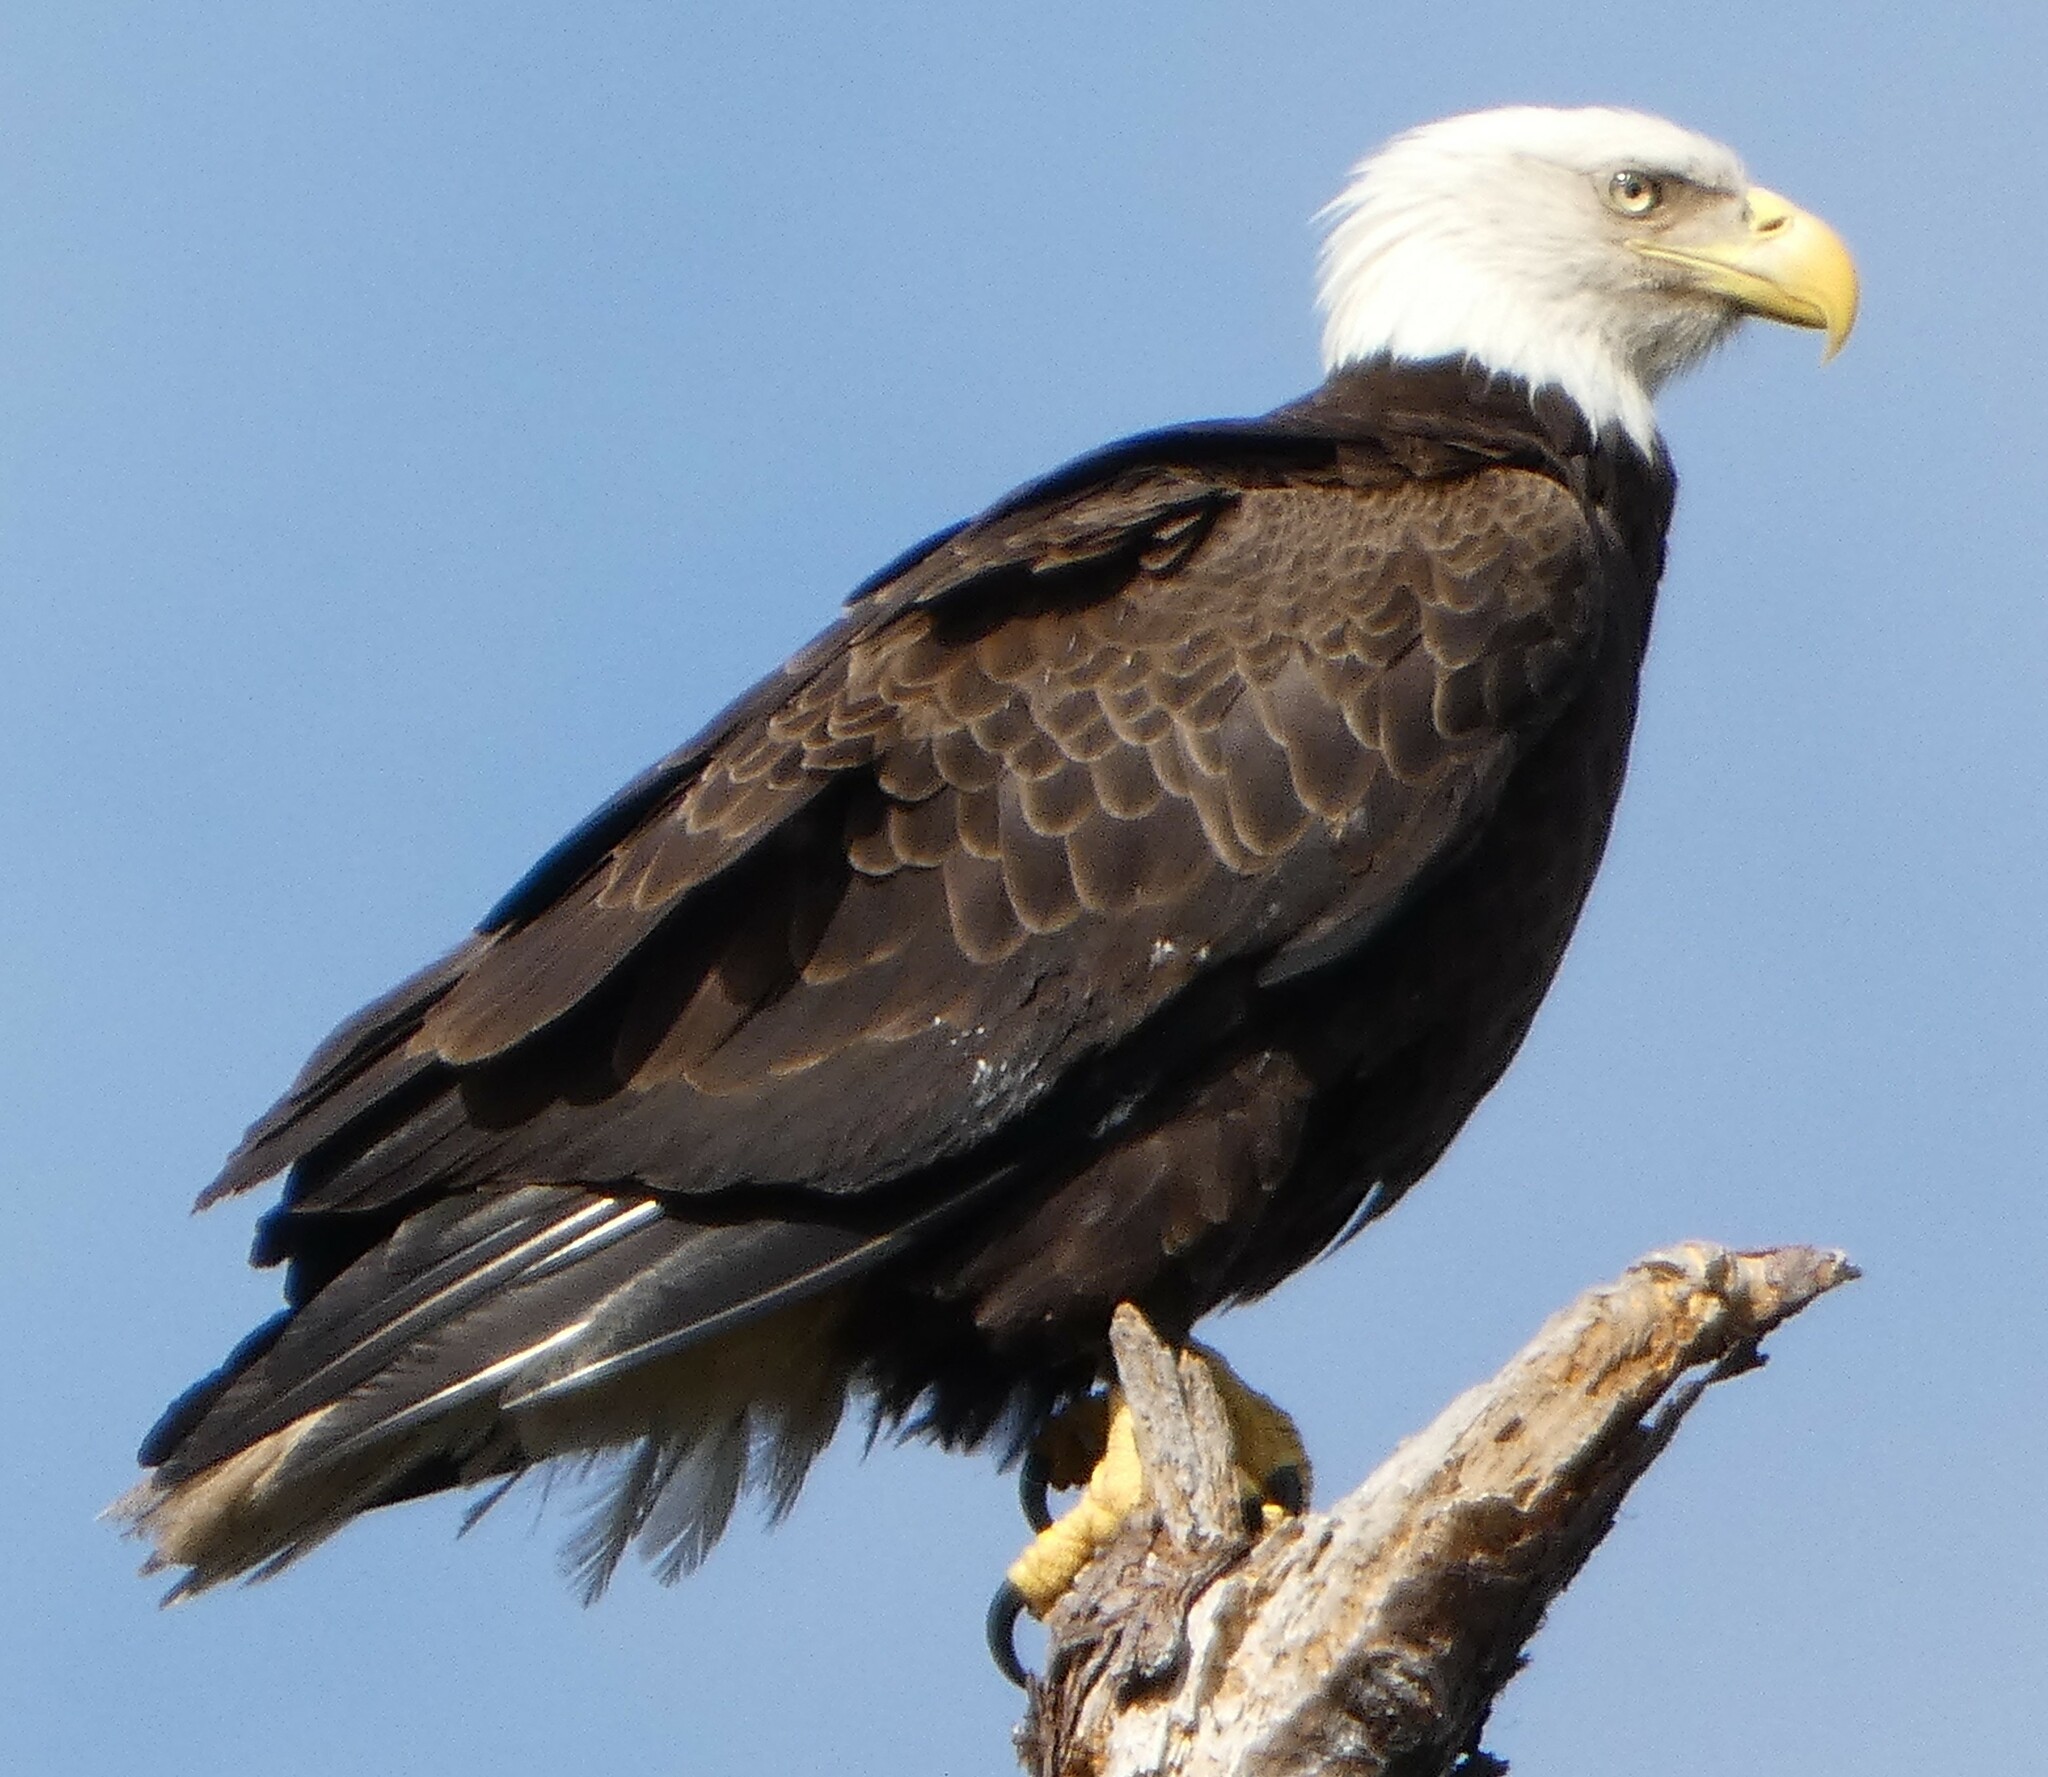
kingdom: Animalia
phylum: Chordata
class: Aves
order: Accipitriformes
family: Accipitridae
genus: Haliaeetus
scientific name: Haliaeetus leucocephalus
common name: Bald eagle
